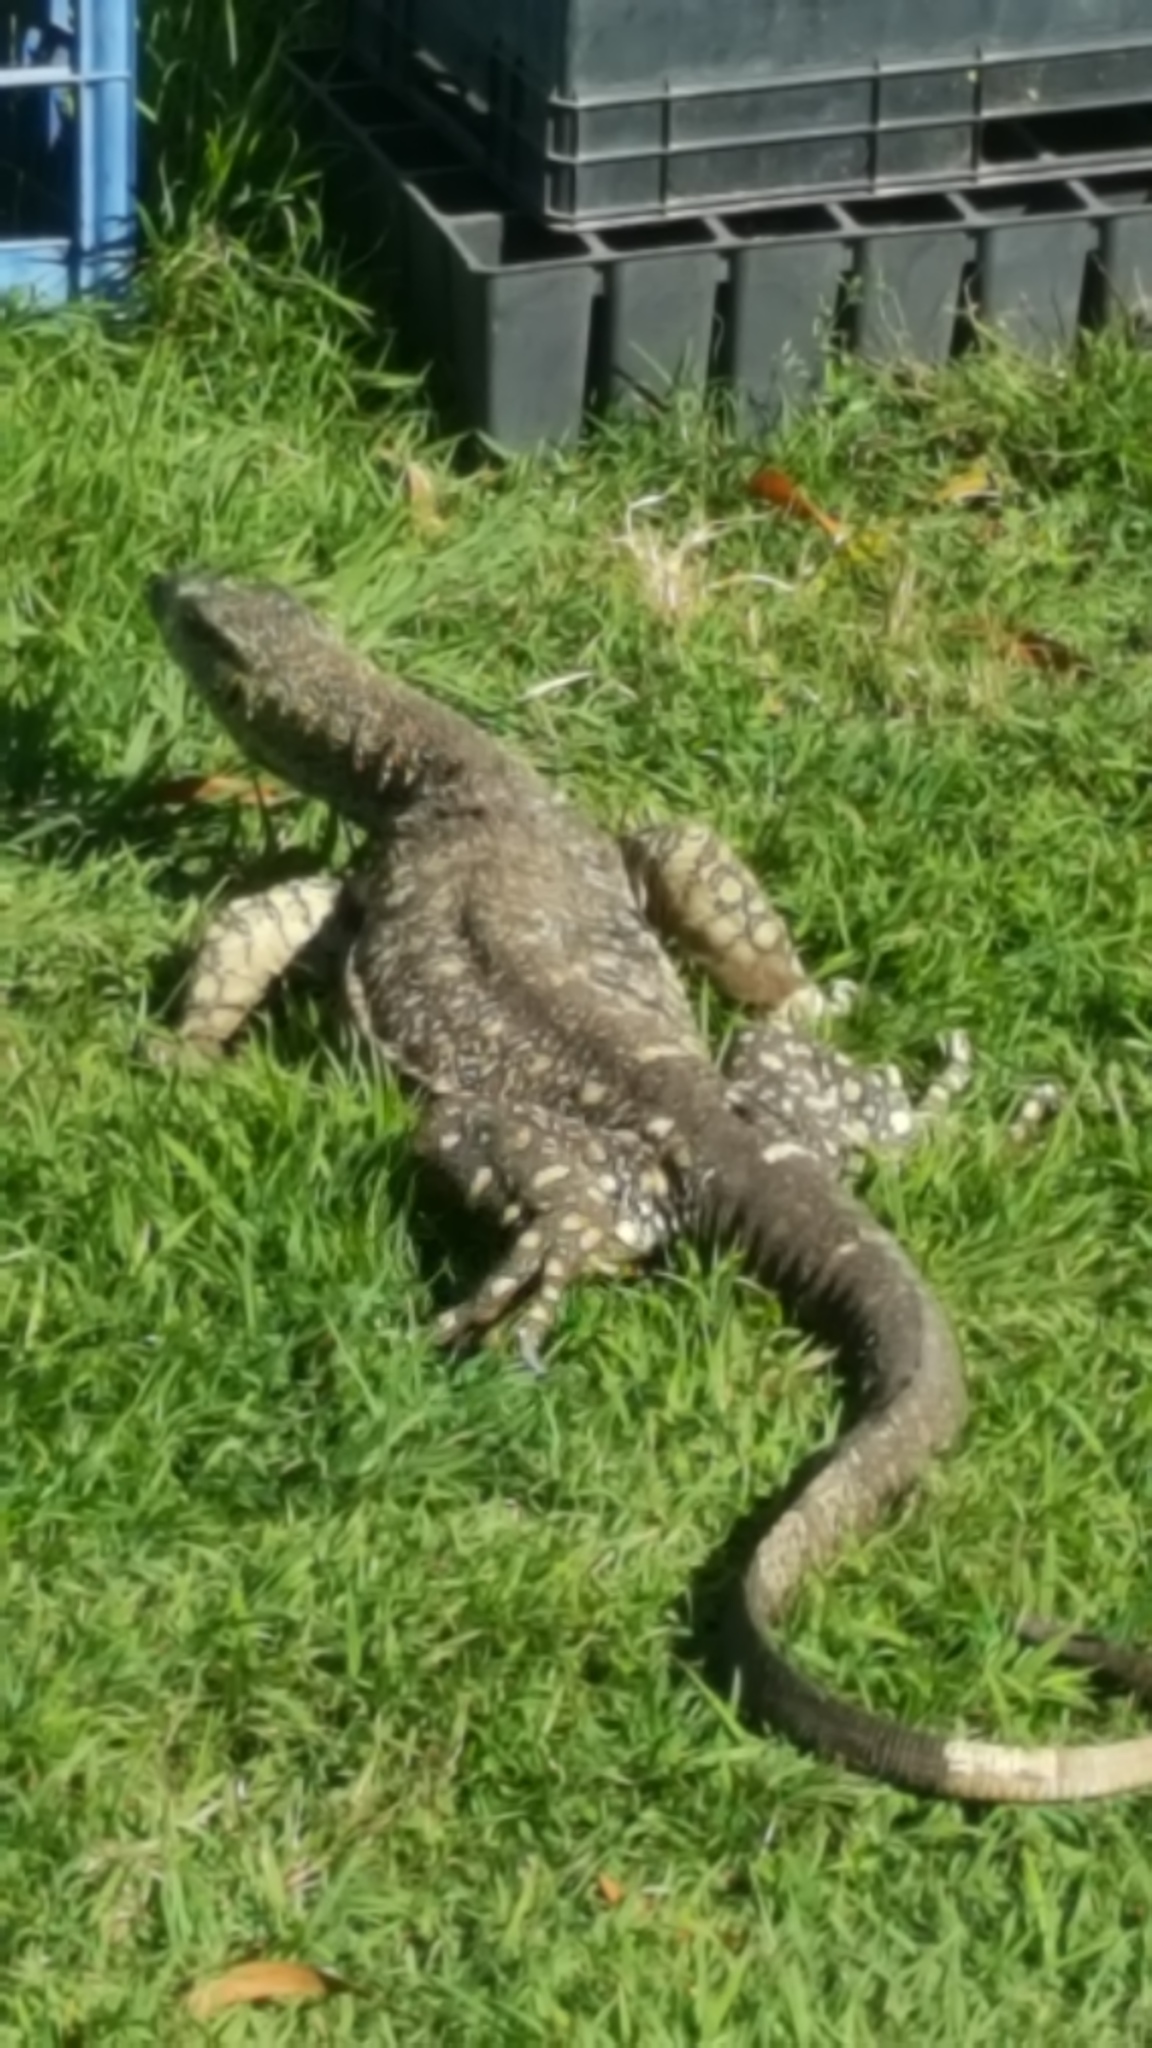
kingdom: Animalia
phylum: Chordata
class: Squamata
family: Varanidae
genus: Varanus
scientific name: Varanus varius
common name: Lace monitor
